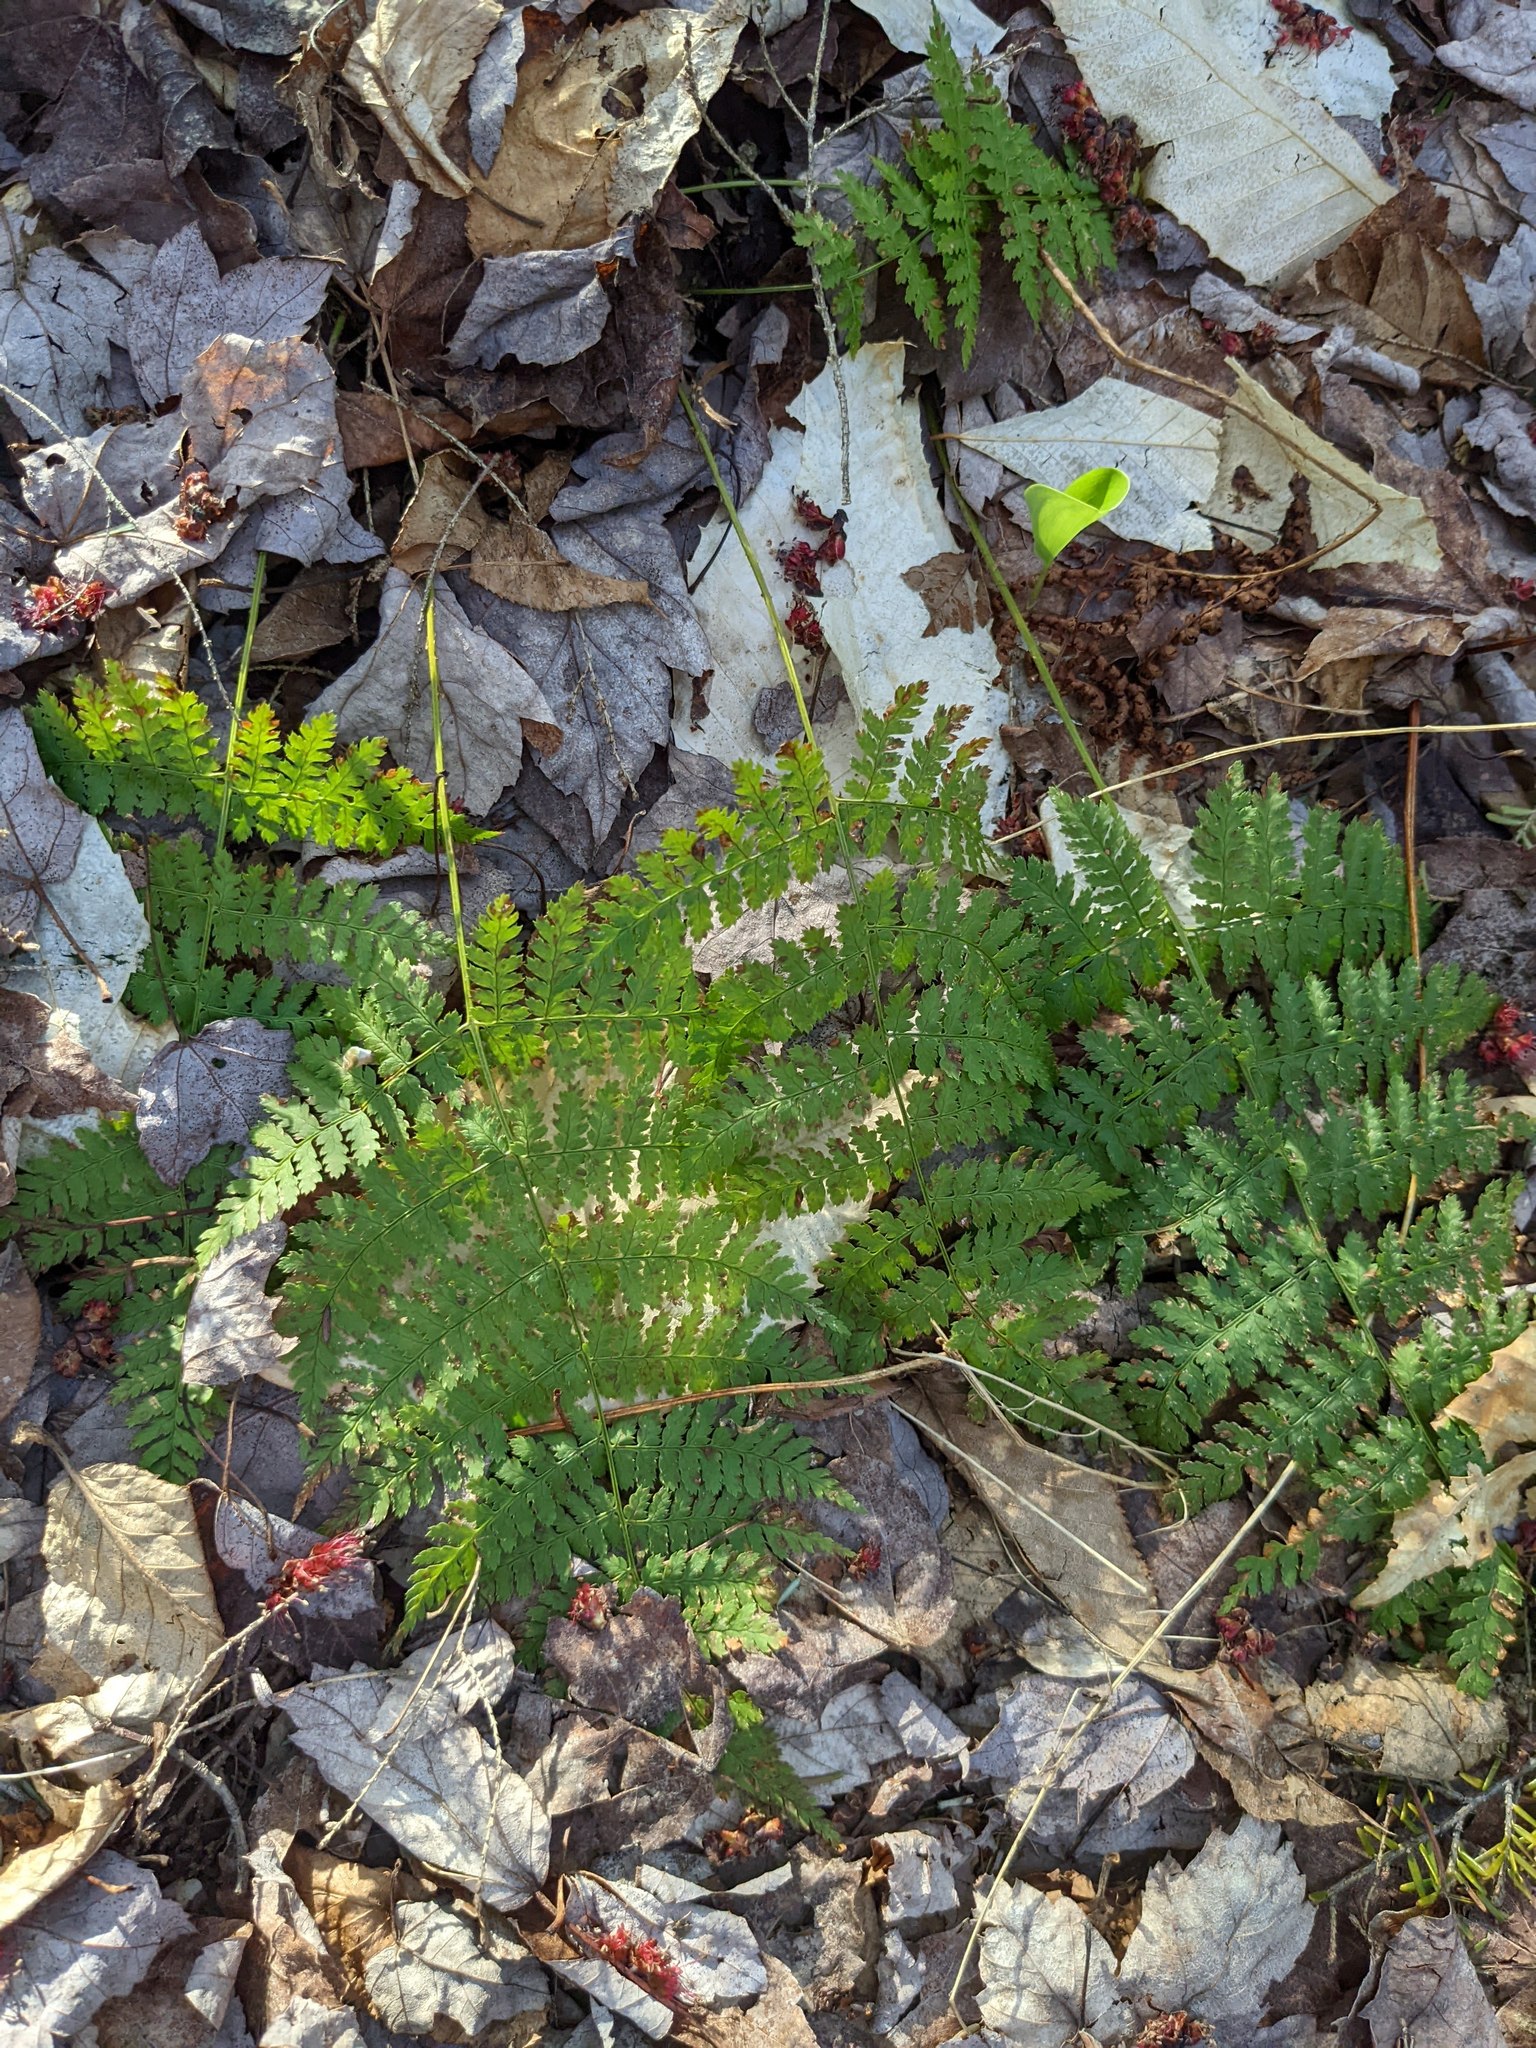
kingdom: Plantae
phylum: Tracheophyta
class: Polypodiopsida
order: Polypodiales
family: Dryopteridaceae
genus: Dryopteris
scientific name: Dryopteris intermedia
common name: Evergreen wood fern
